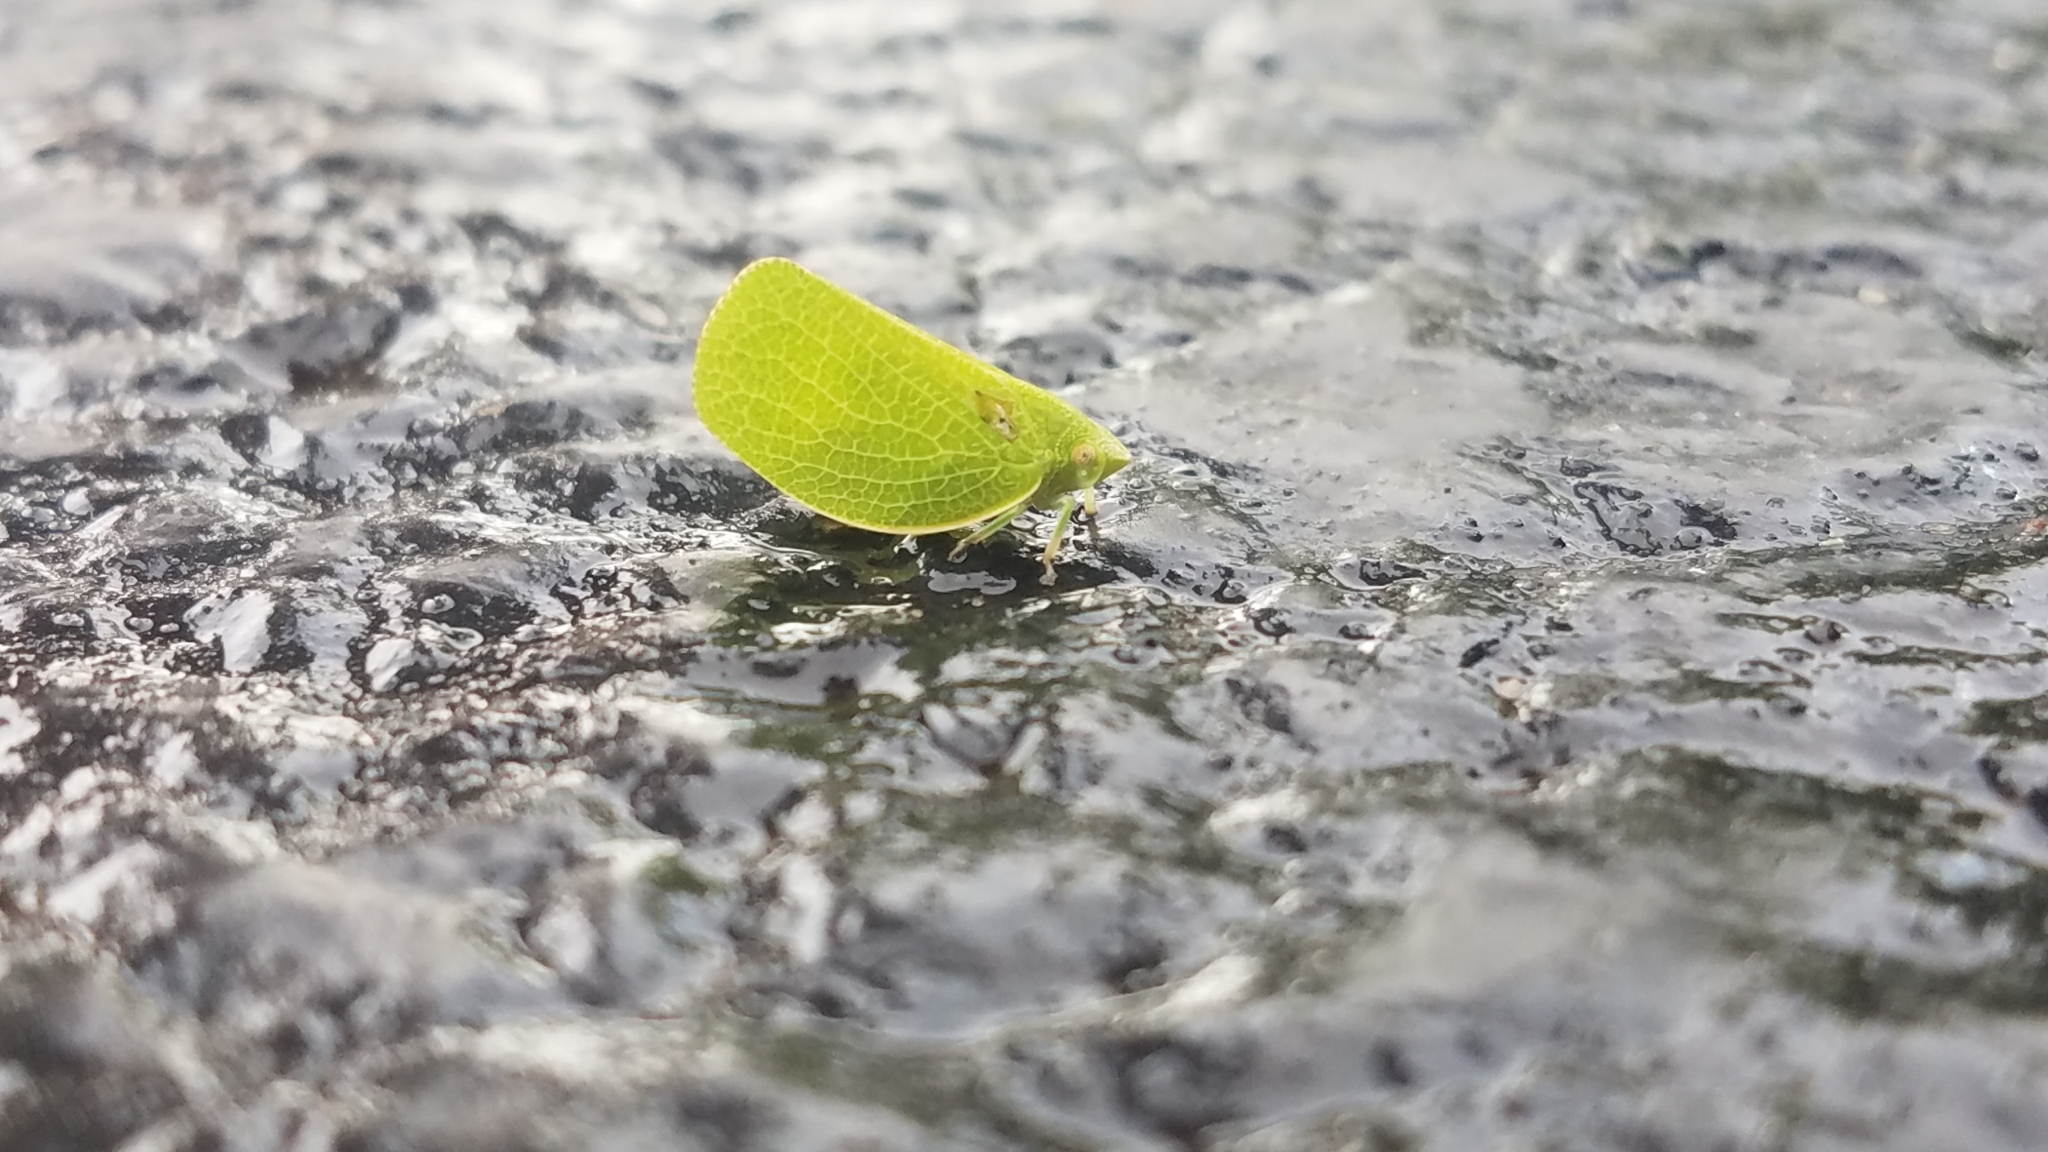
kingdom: Animalia
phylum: Arthropoda
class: Insecta
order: Hemiptera
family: Acanaloniidae
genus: Acanalonia
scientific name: Acanalonia conica
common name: Green cone-headed planthopper
